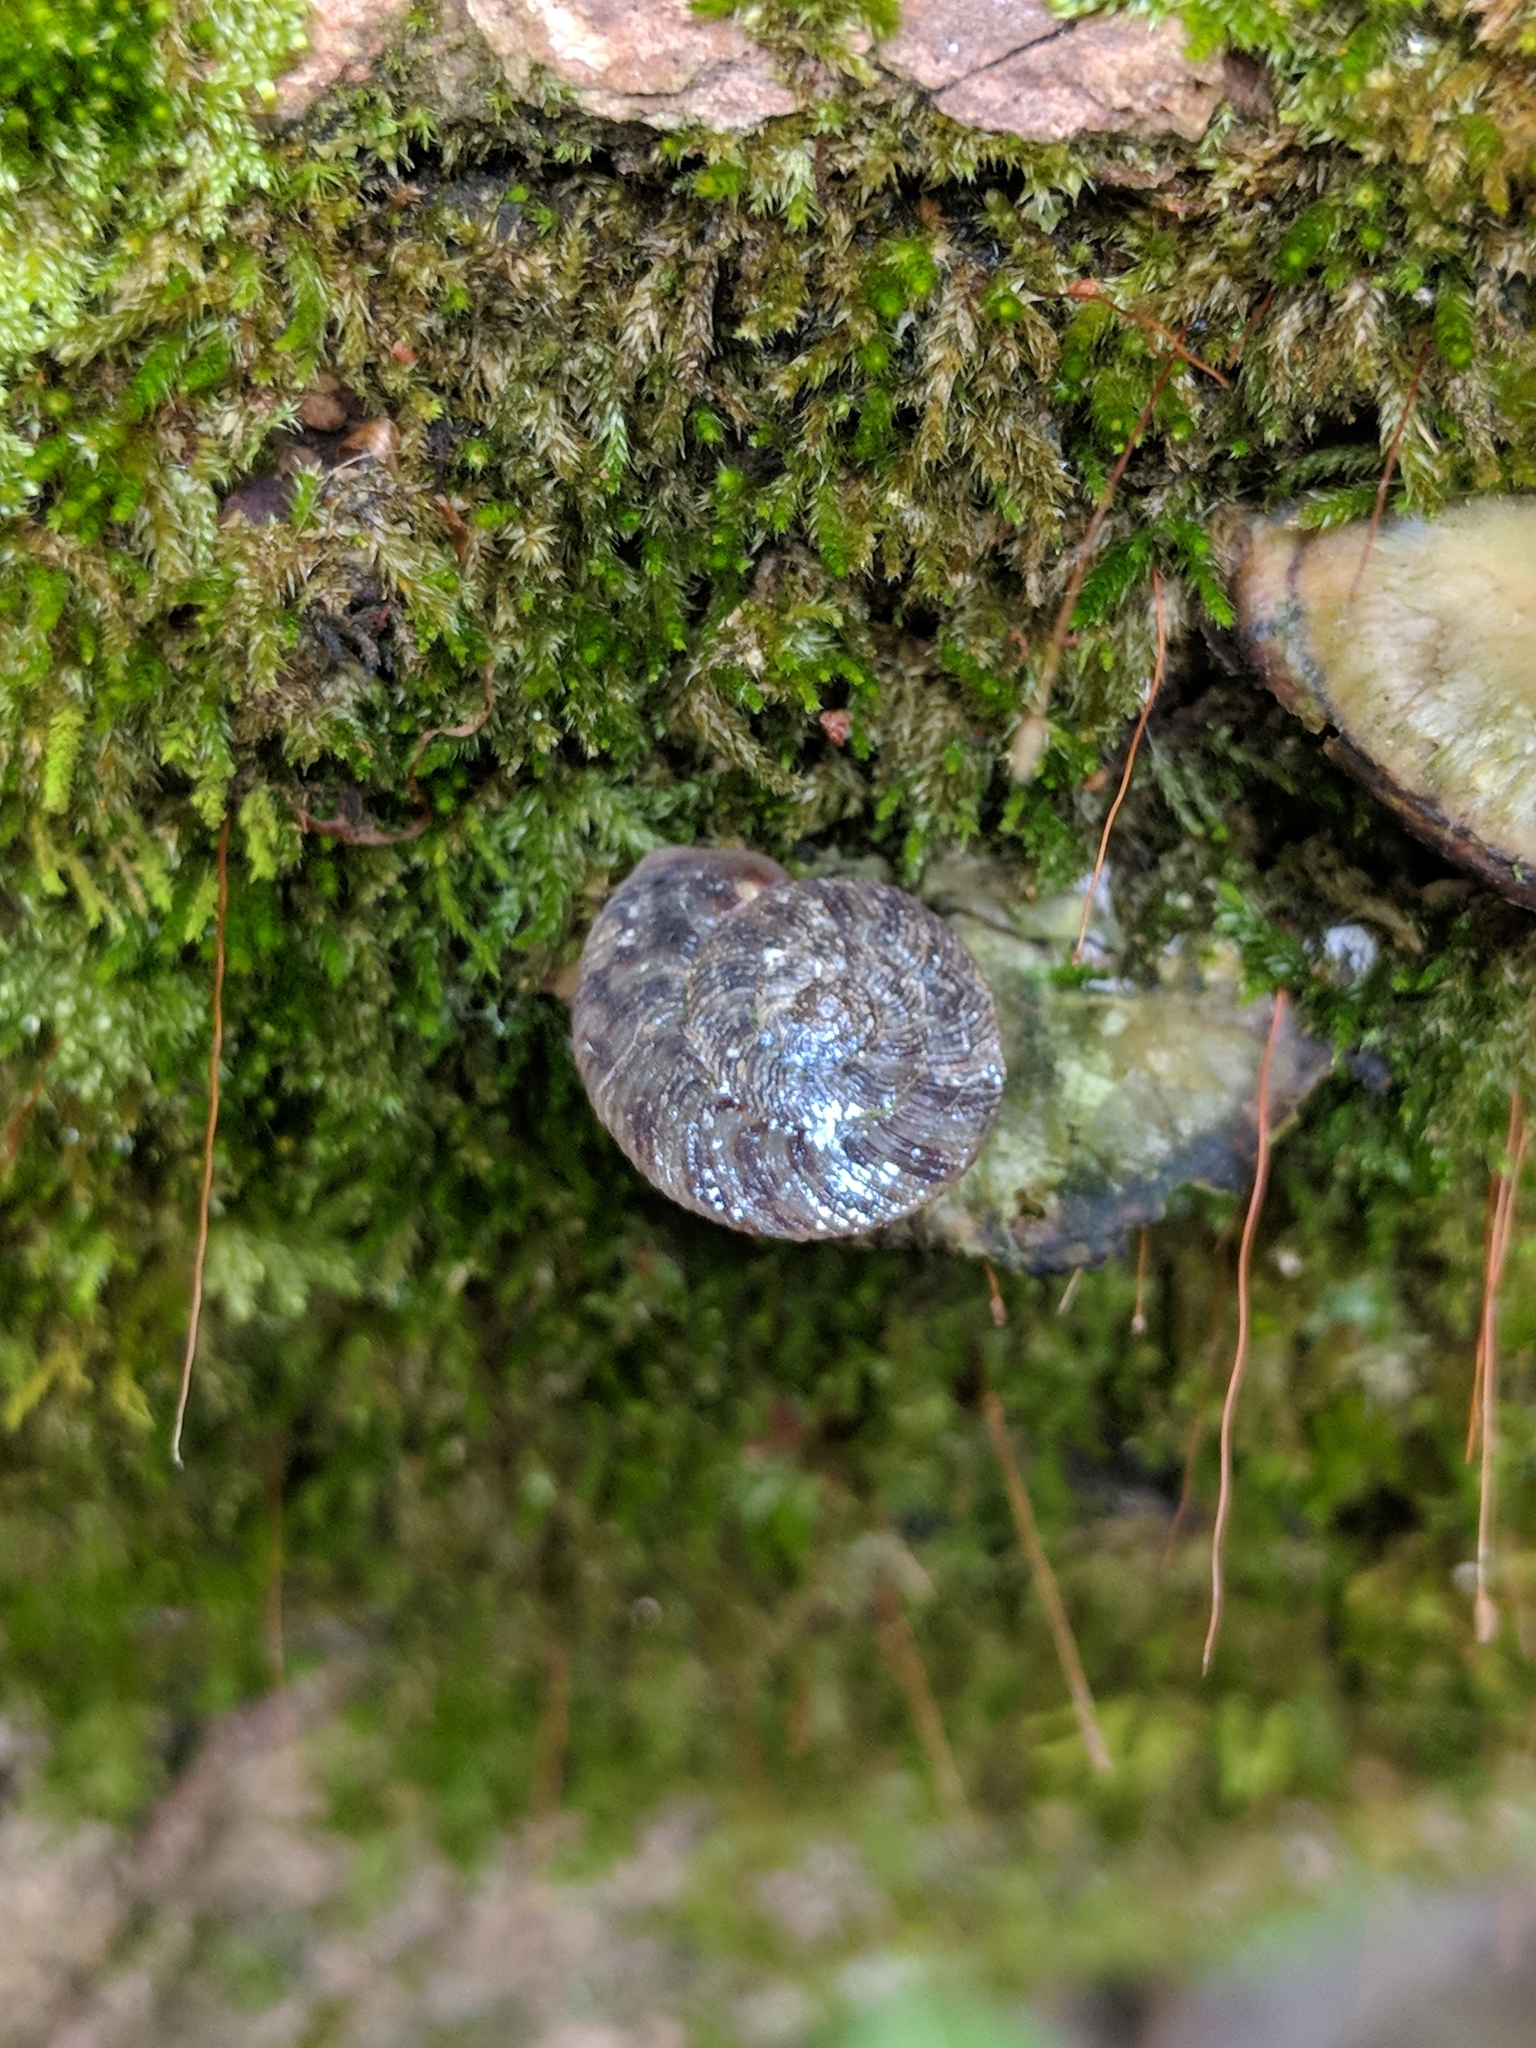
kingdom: Animalia
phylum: Mollusca
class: Gastropoda
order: Stylommatophora
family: Discidae
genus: Anguispira
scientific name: Anguispira alternata
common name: Flamed tigersnail
